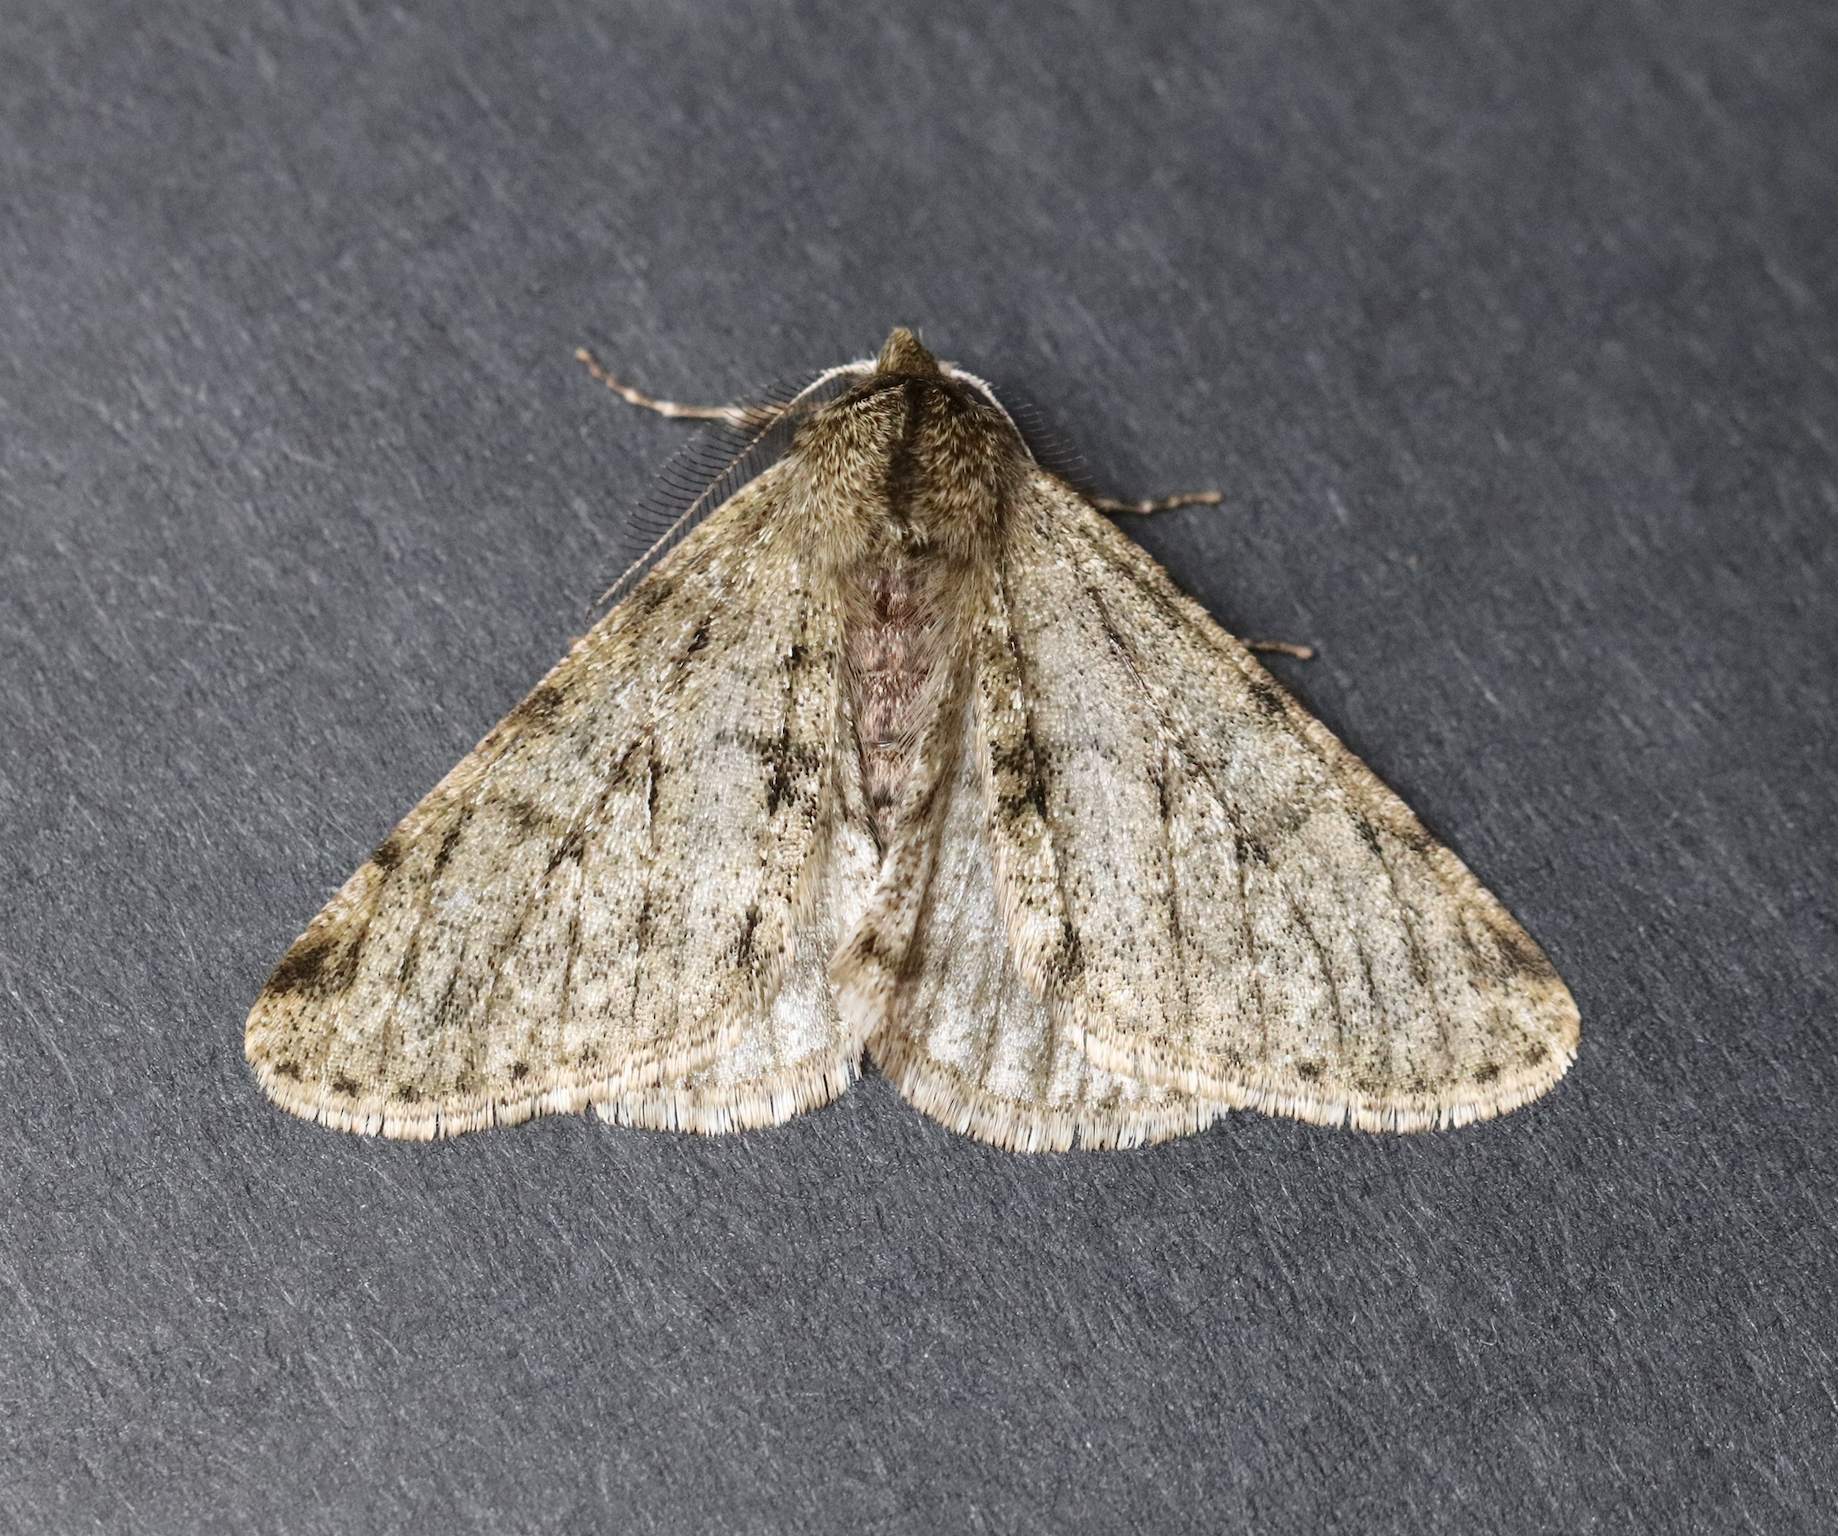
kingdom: Animalia
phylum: Arthropoda
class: Insecta
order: Lepidoptera
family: Geometridae
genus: Phigalia
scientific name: Phigalia pilosaria
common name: Pale brindled beauty
